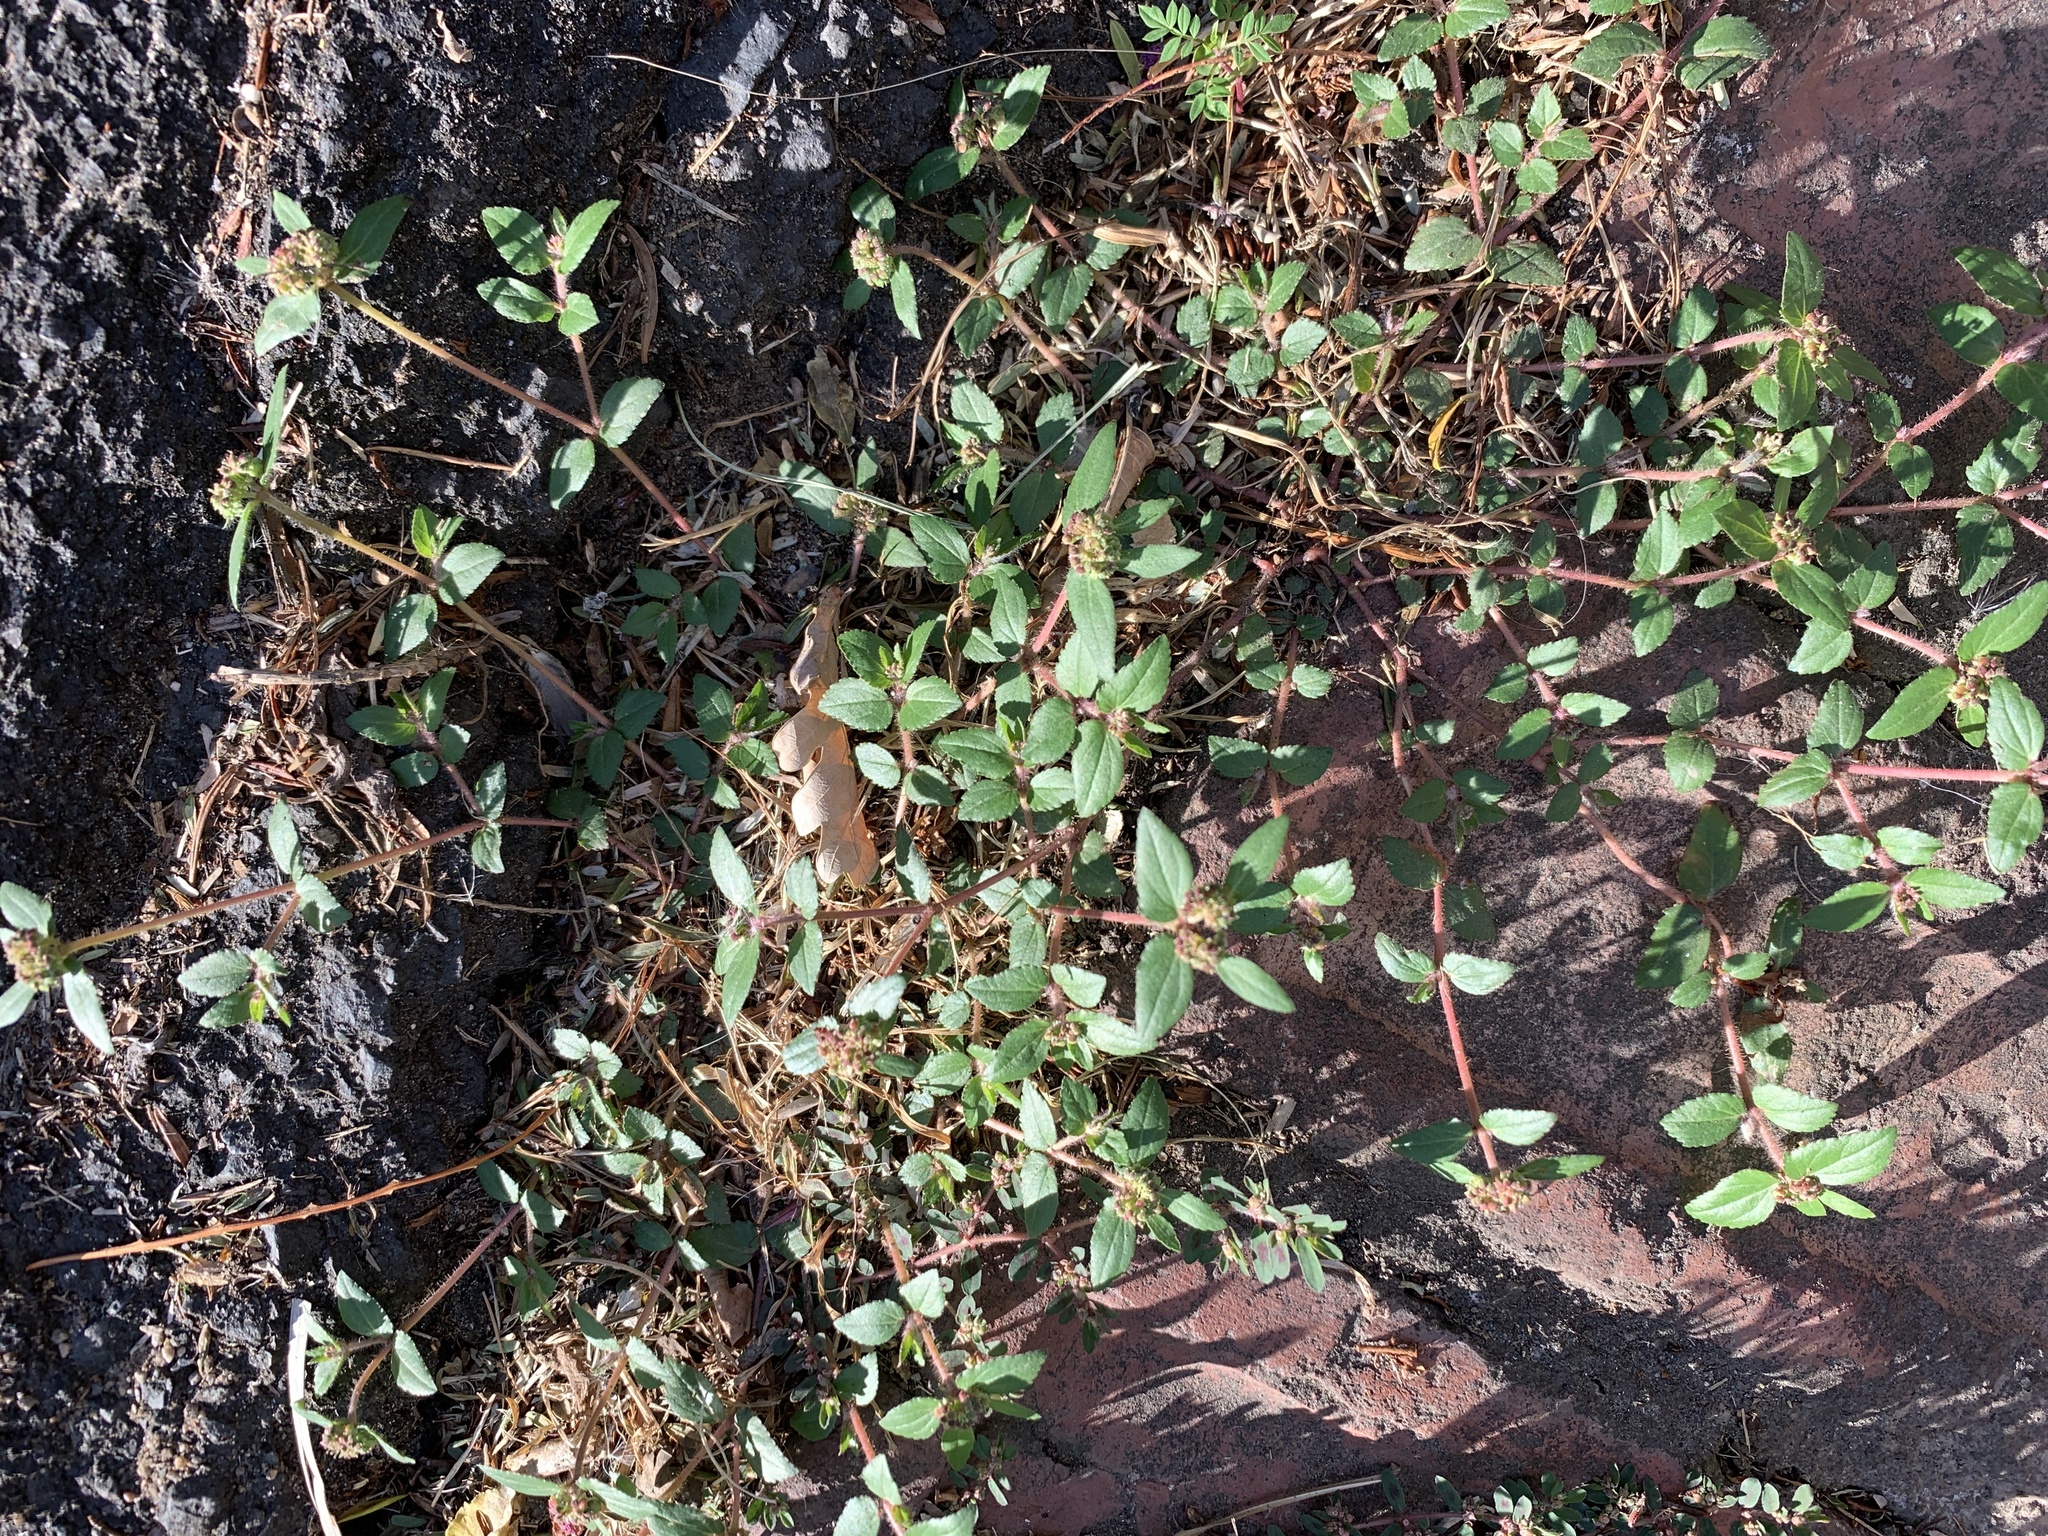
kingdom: Plantae
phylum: Tracheophyta
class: Magnoliopsida
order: Malpighiales
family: Euphorbiaceae
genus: Euphorbia
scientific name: Euphorbia ophthalmica
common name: Florida hammock sandmat
